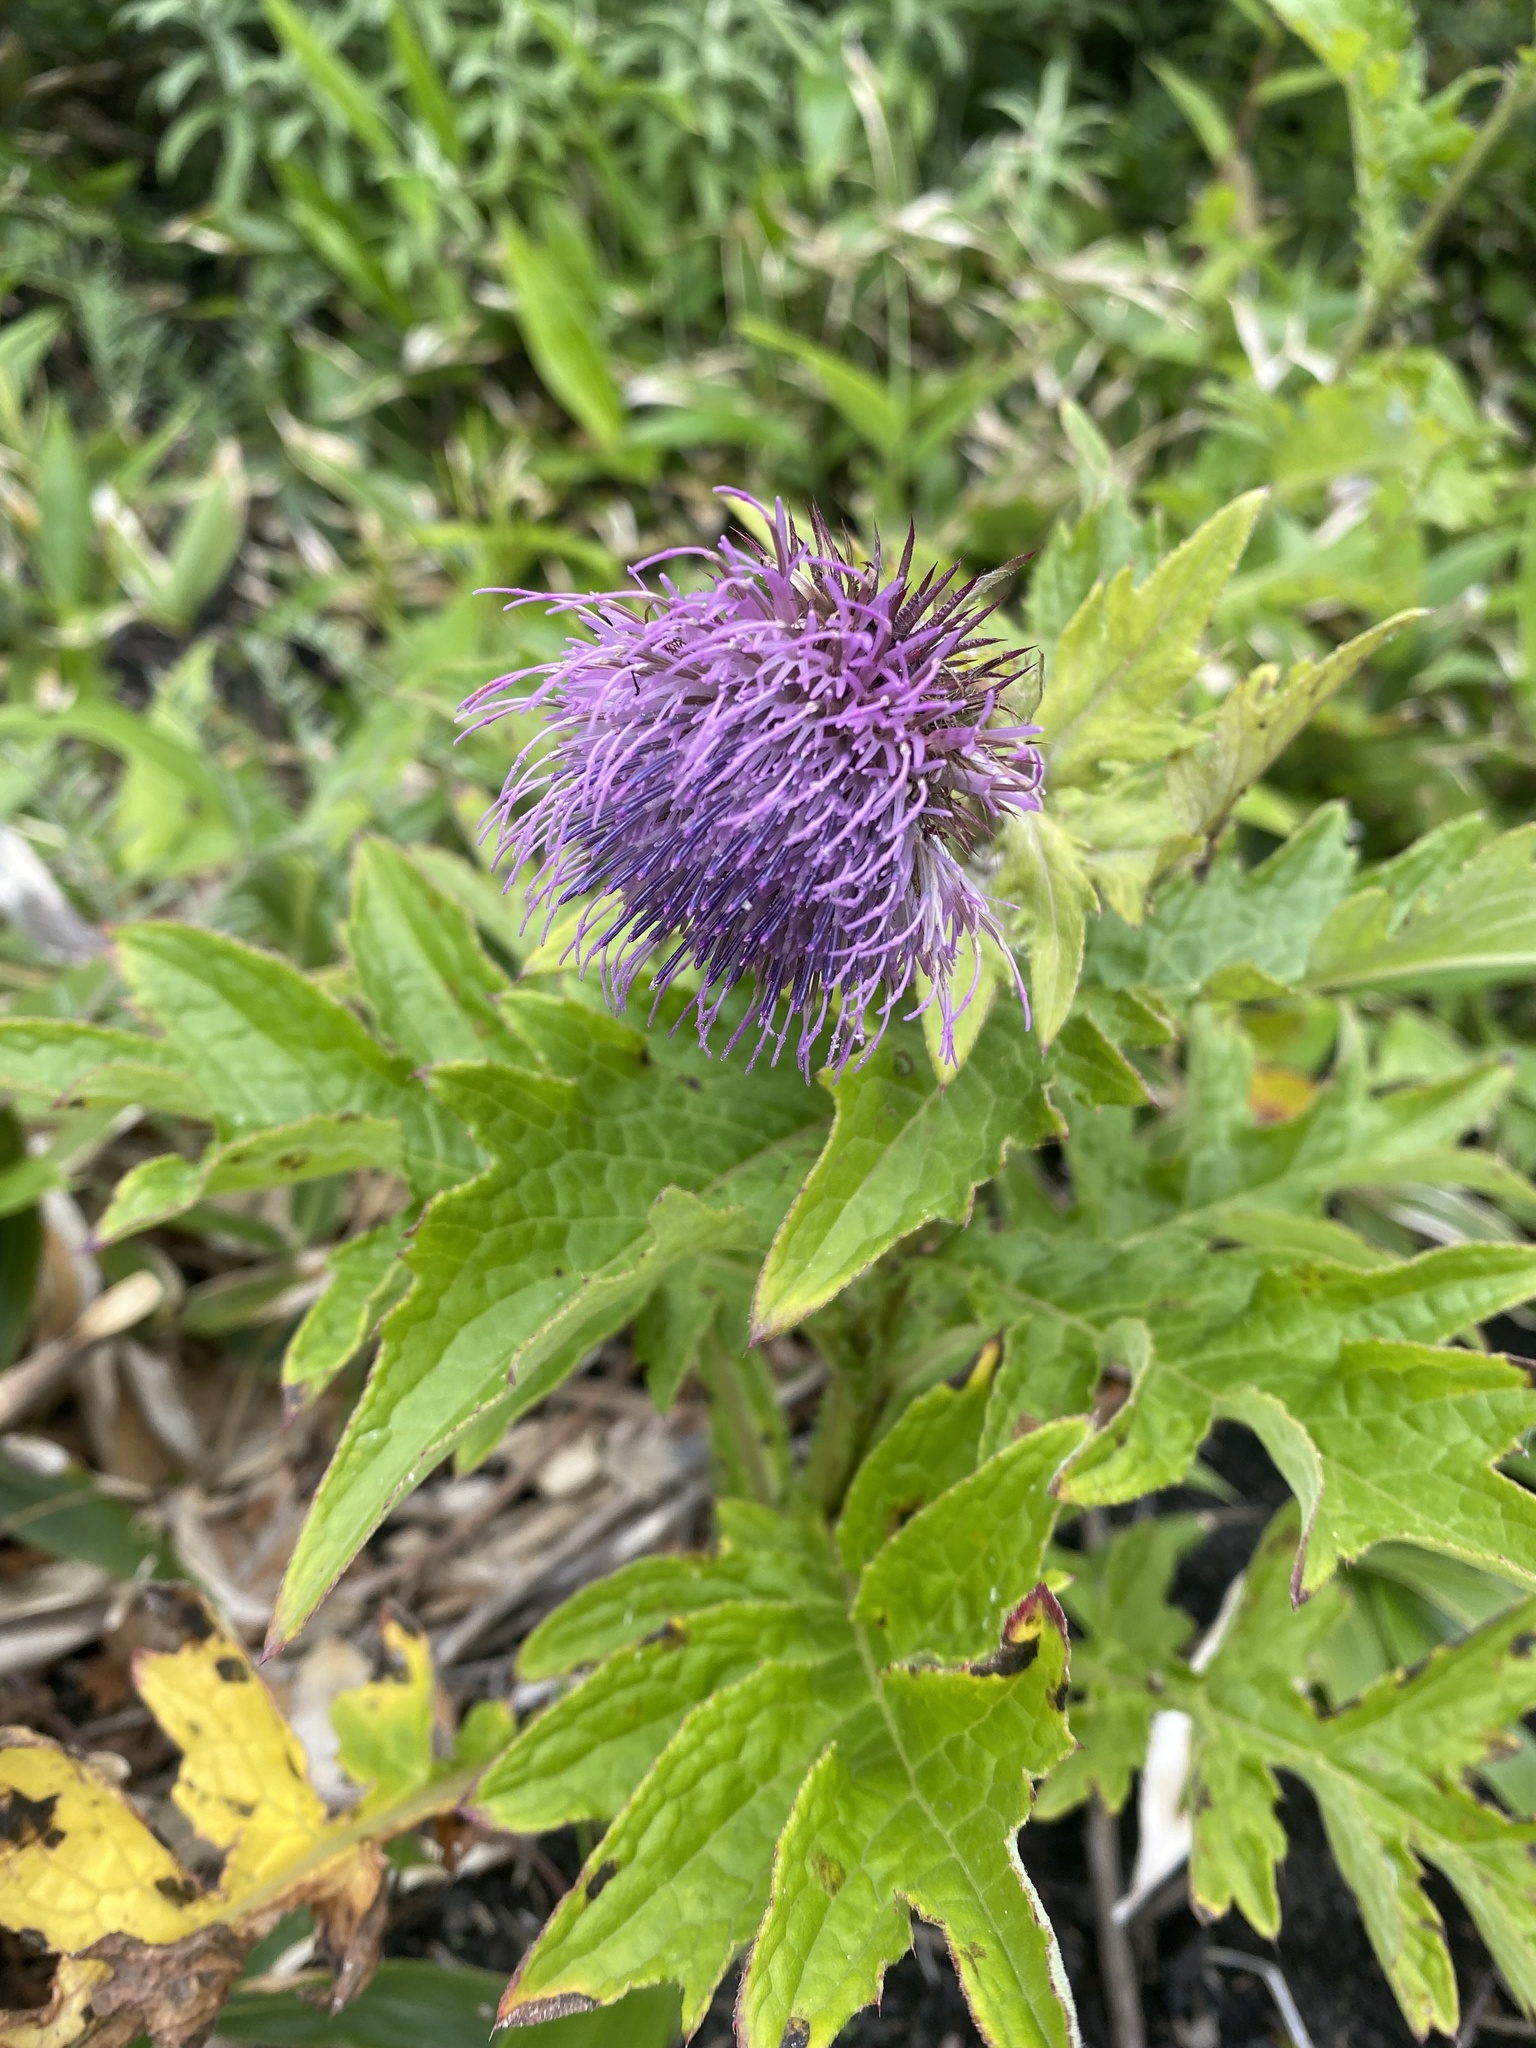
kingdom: Plantae
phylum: Tracheophyta
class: Magnoliopsida
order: Asterales
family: Asteraceae
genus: Cirsium
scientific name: Cirsium kamtschaticum
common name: Kamchatka thistle
